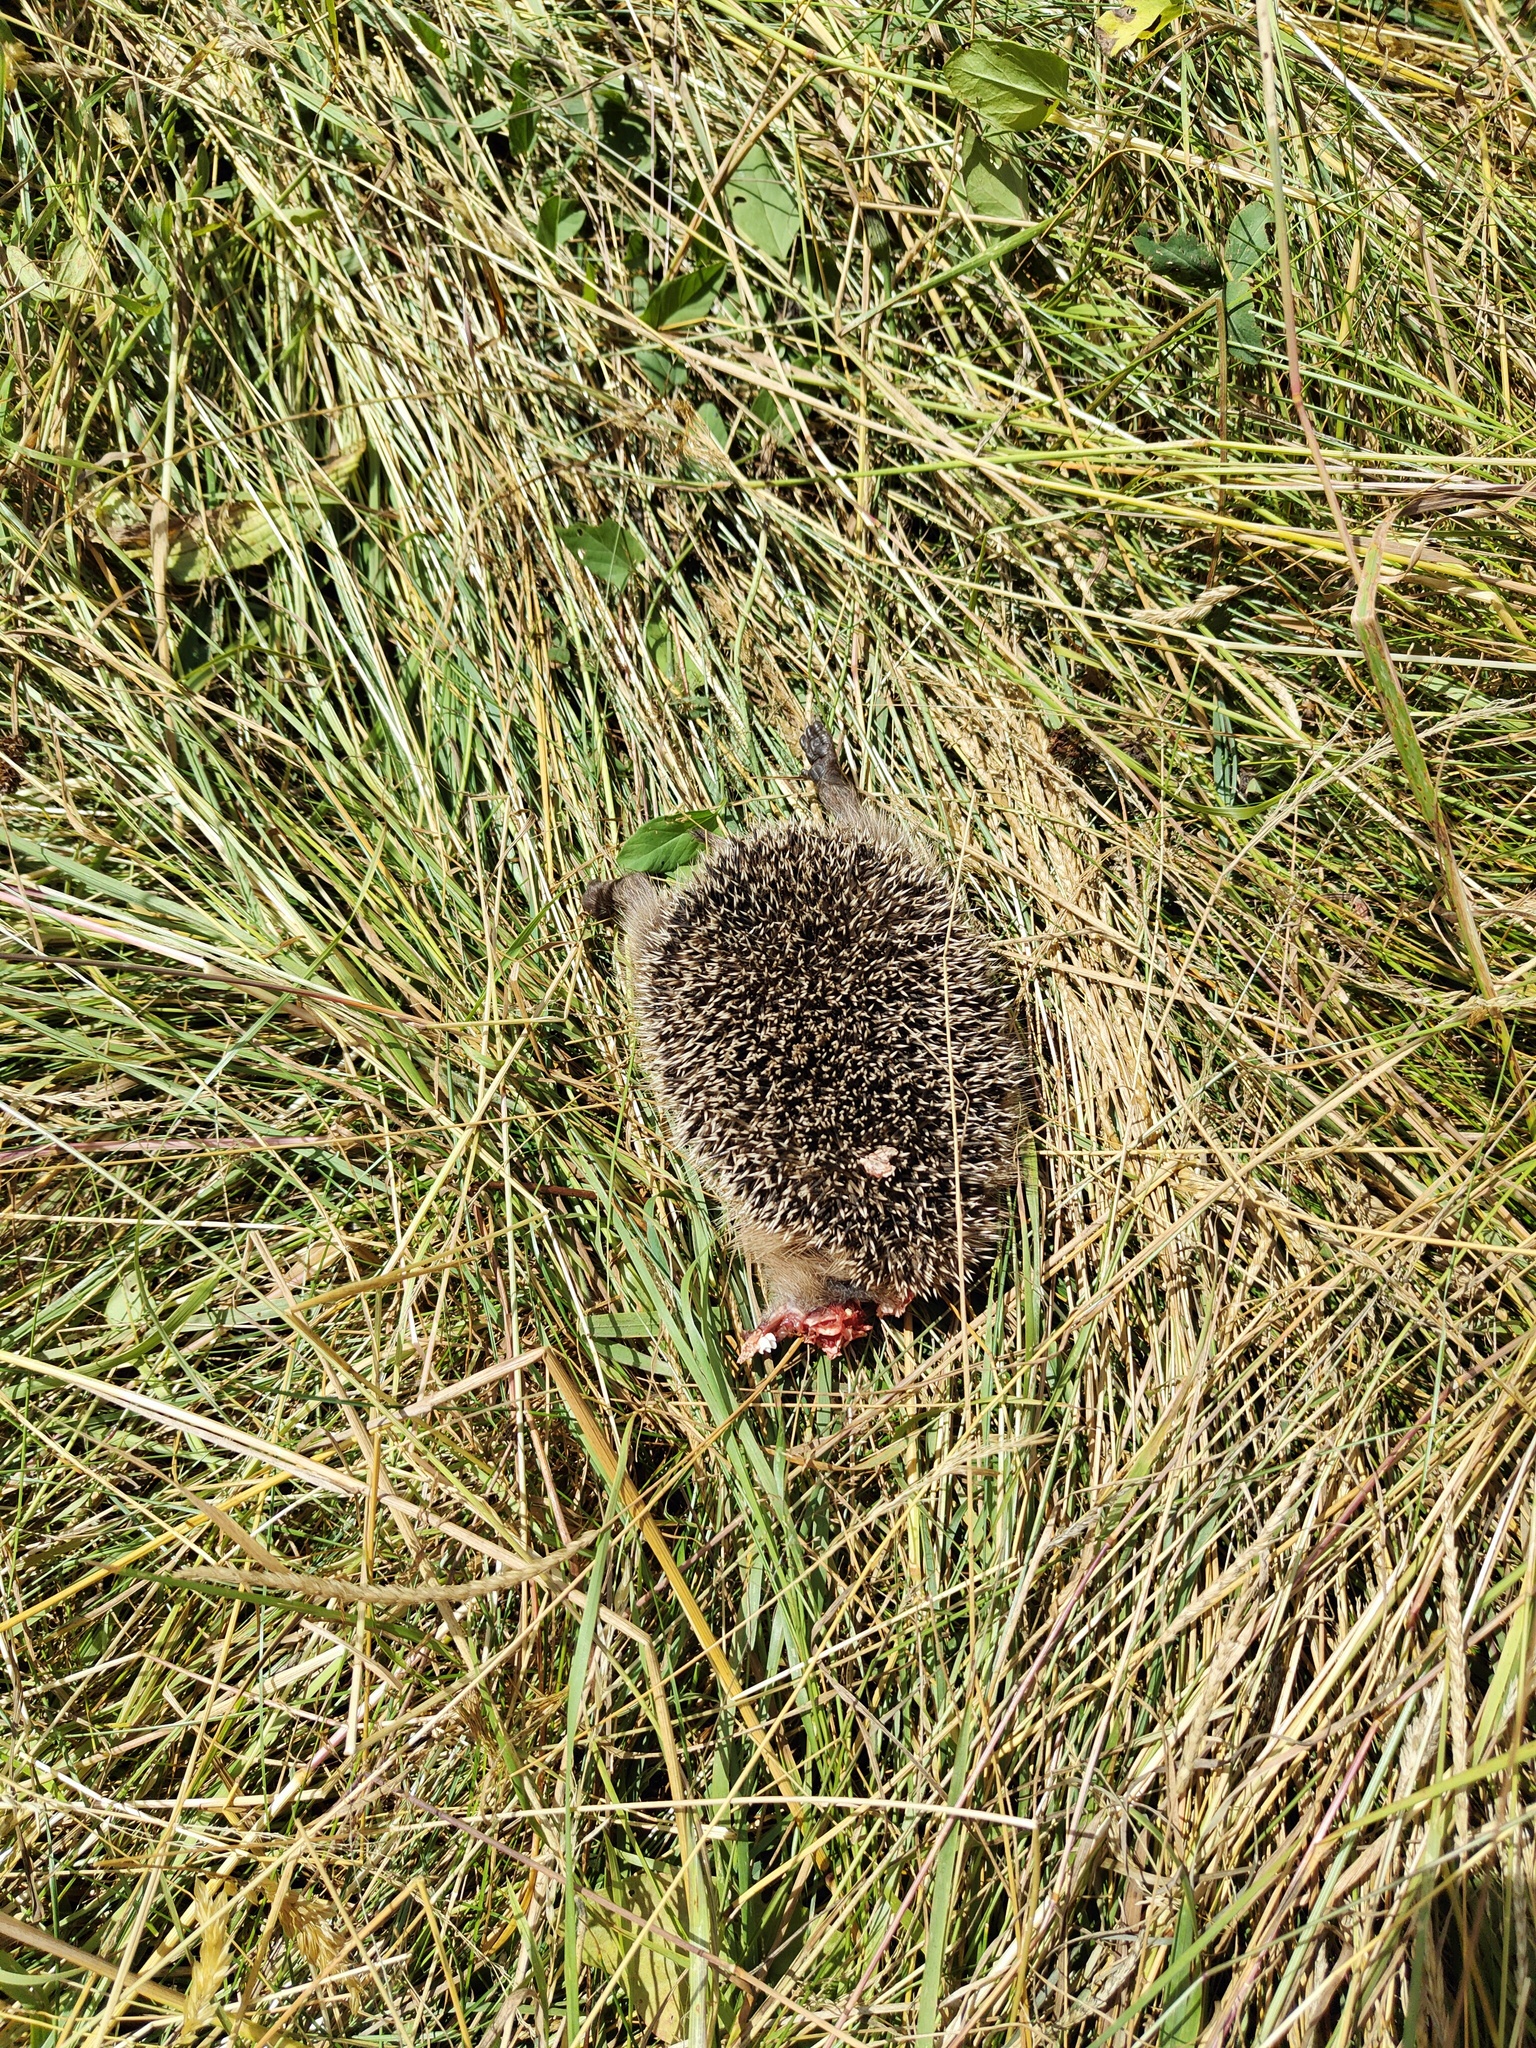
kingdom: Animalia
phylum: Chordata
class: Mammalia
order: Erinaceomorpha
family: Erinaceidae
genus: Erinaceus
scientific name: Erinaceus europaeus
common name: West european hedgehog
